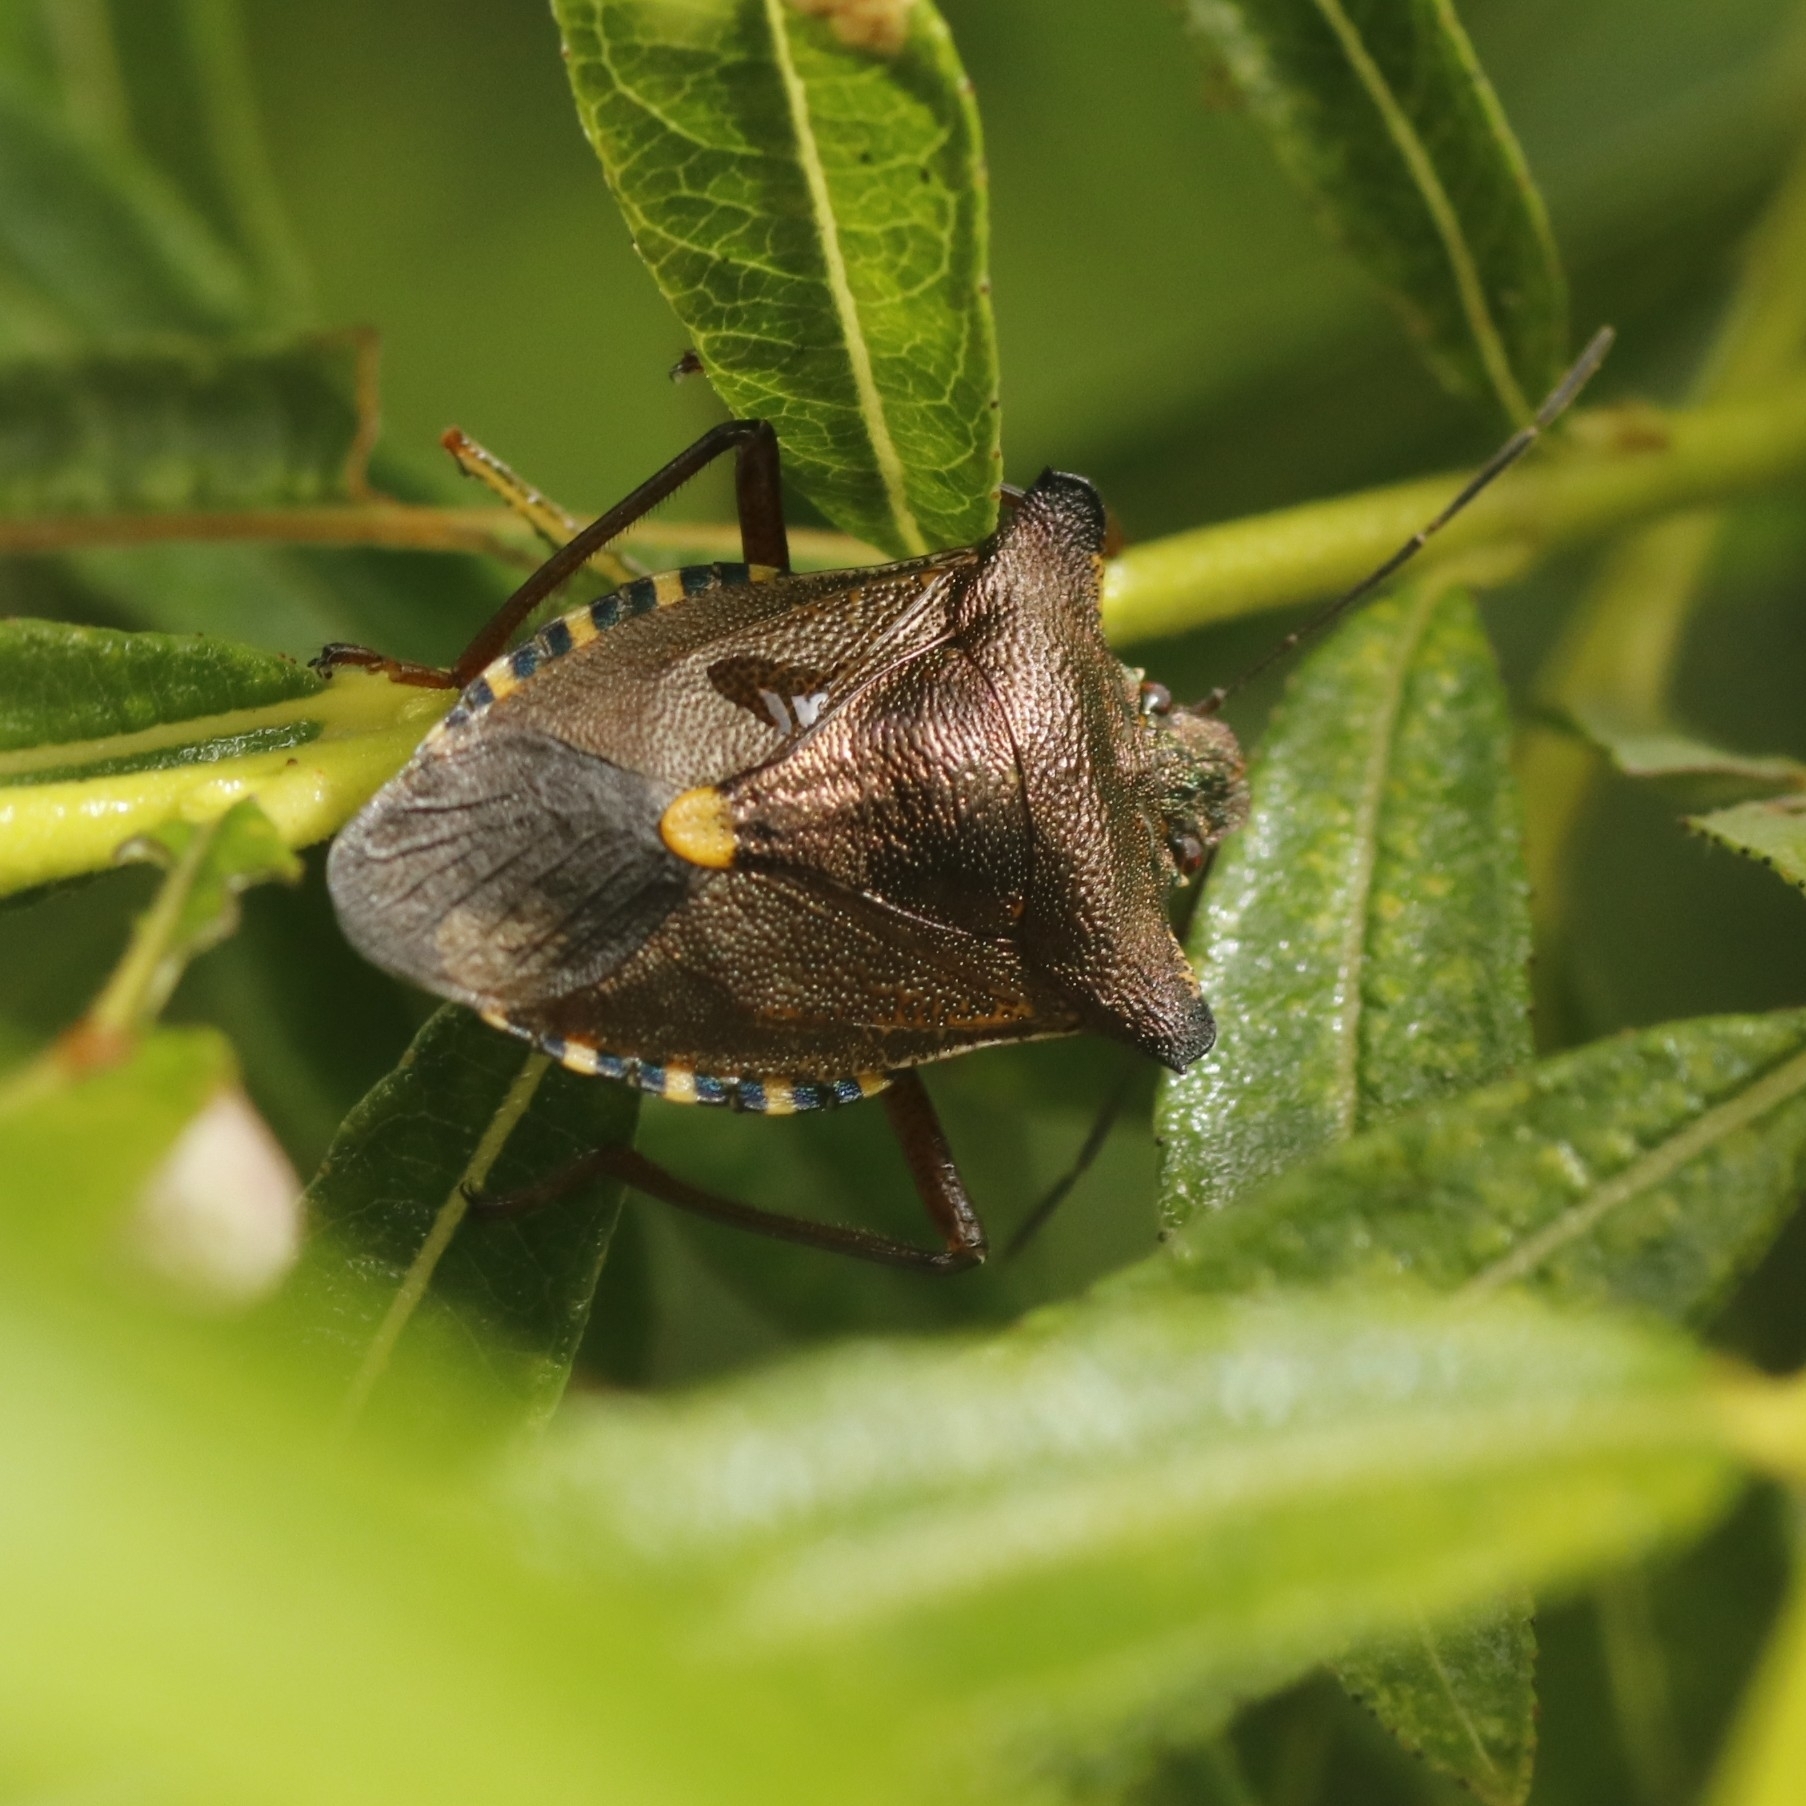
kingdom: Animalia
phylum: Arthropoda
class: Insecta
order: Hemiptera
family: Pentatomidae
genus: Pentatoma
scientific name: Pentatoma rufipes
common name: Forest bug
